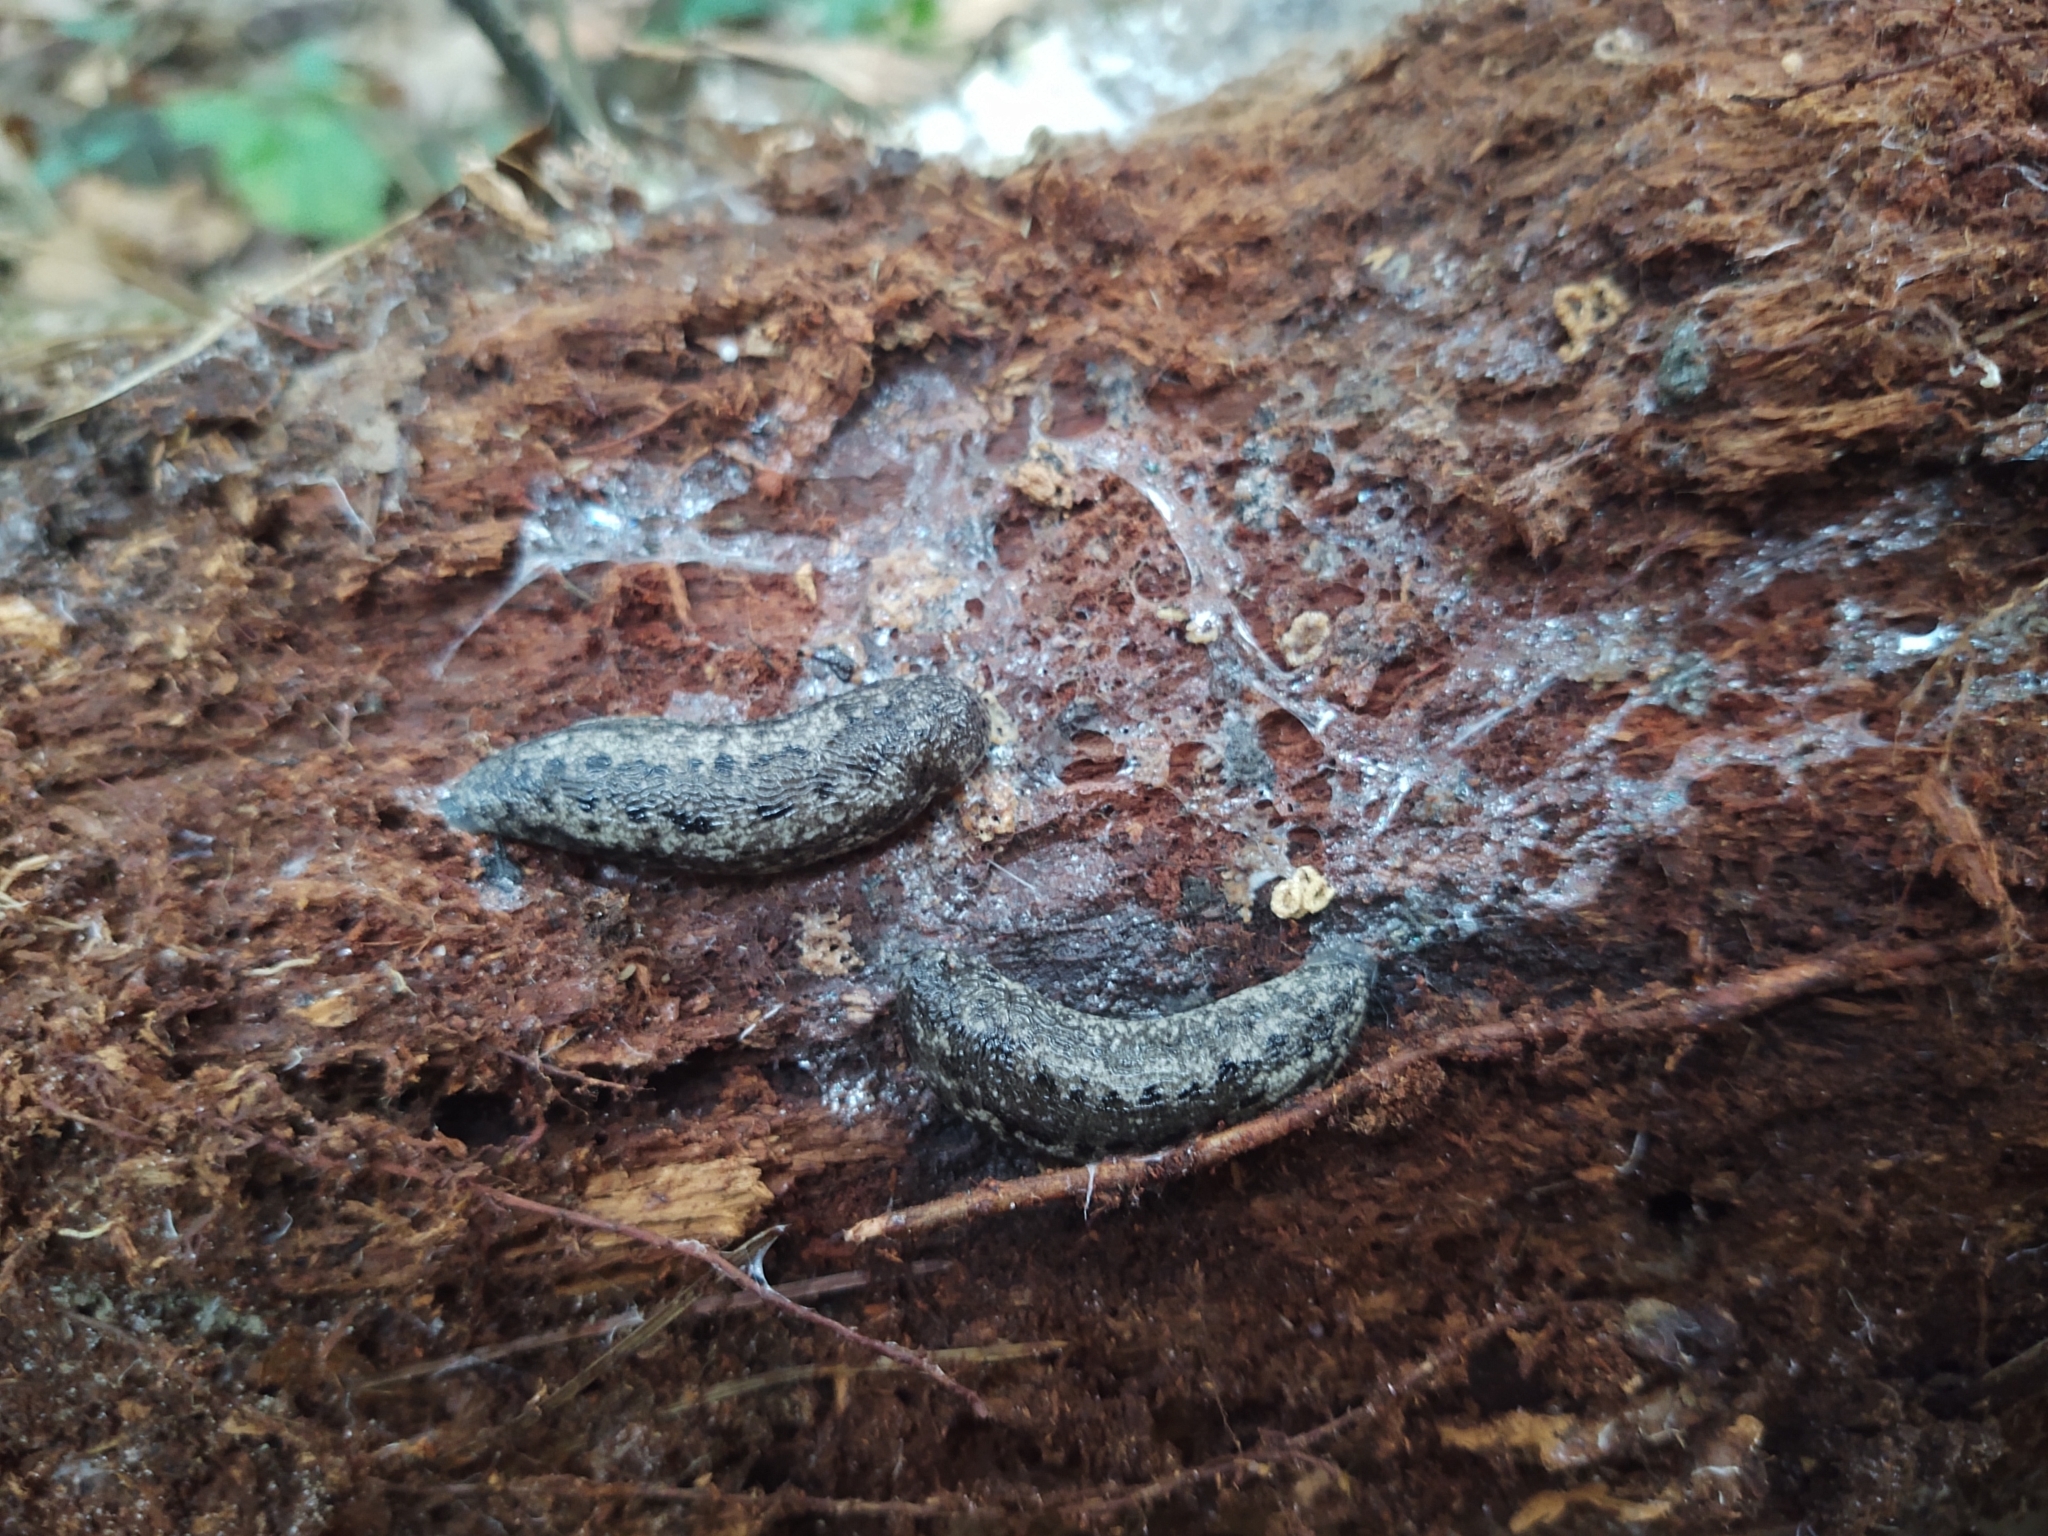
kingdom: Animalia
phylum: Mollusca
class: Gastropoda
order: Stylommatophora
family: Philomycidae
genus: Philomycus
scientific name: Philomycus carolinianus
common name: Carolina mantleslug
